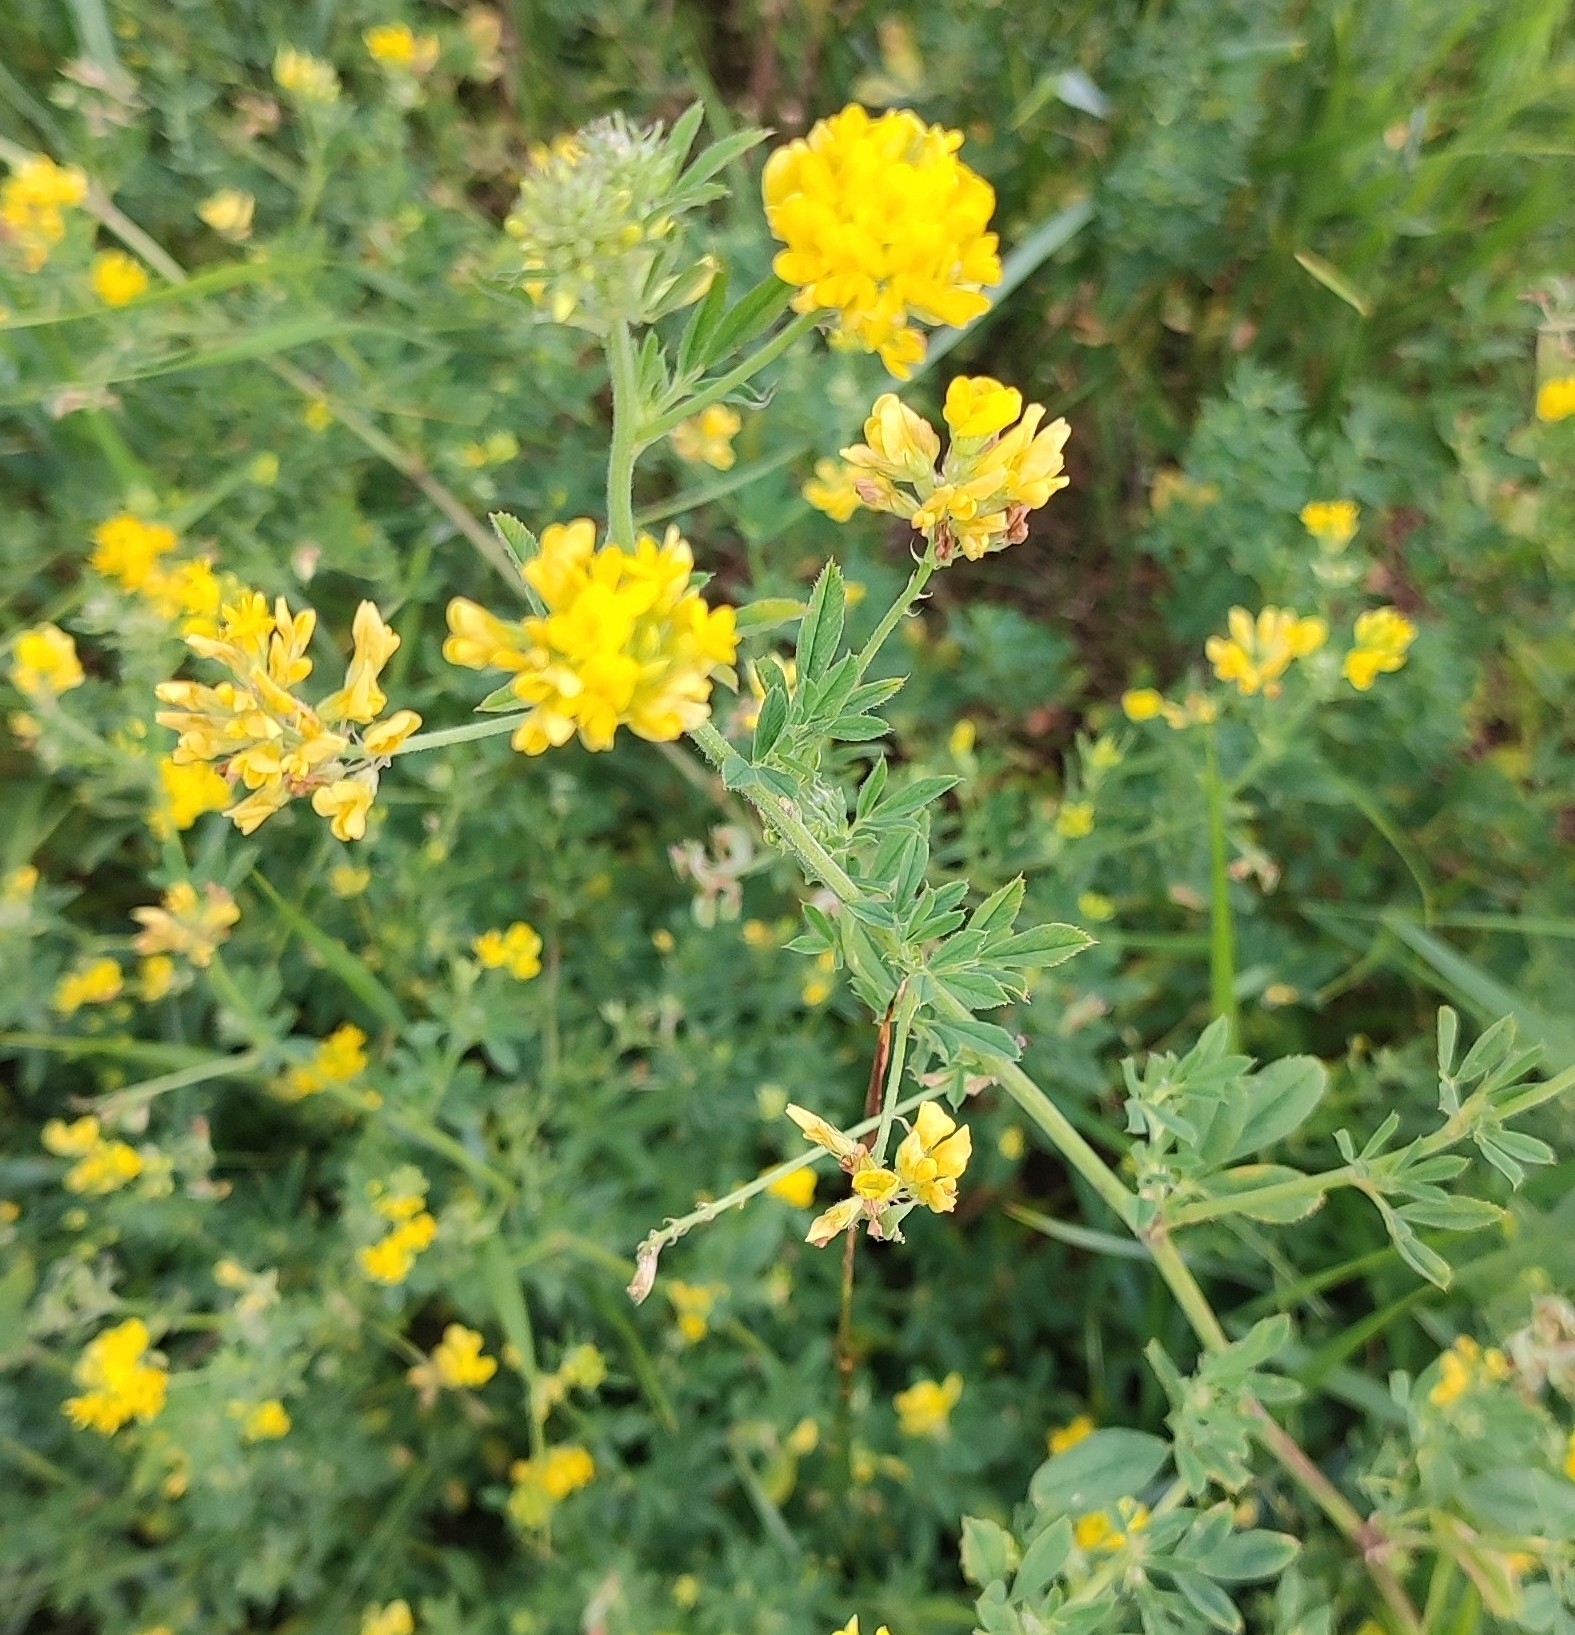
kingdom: Plantae
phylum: Tracheophyta
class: Magnoliopsida
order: Fabales
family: Fabaceae
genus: Medicago
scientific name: Medicago falcata
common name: Sickle medick
